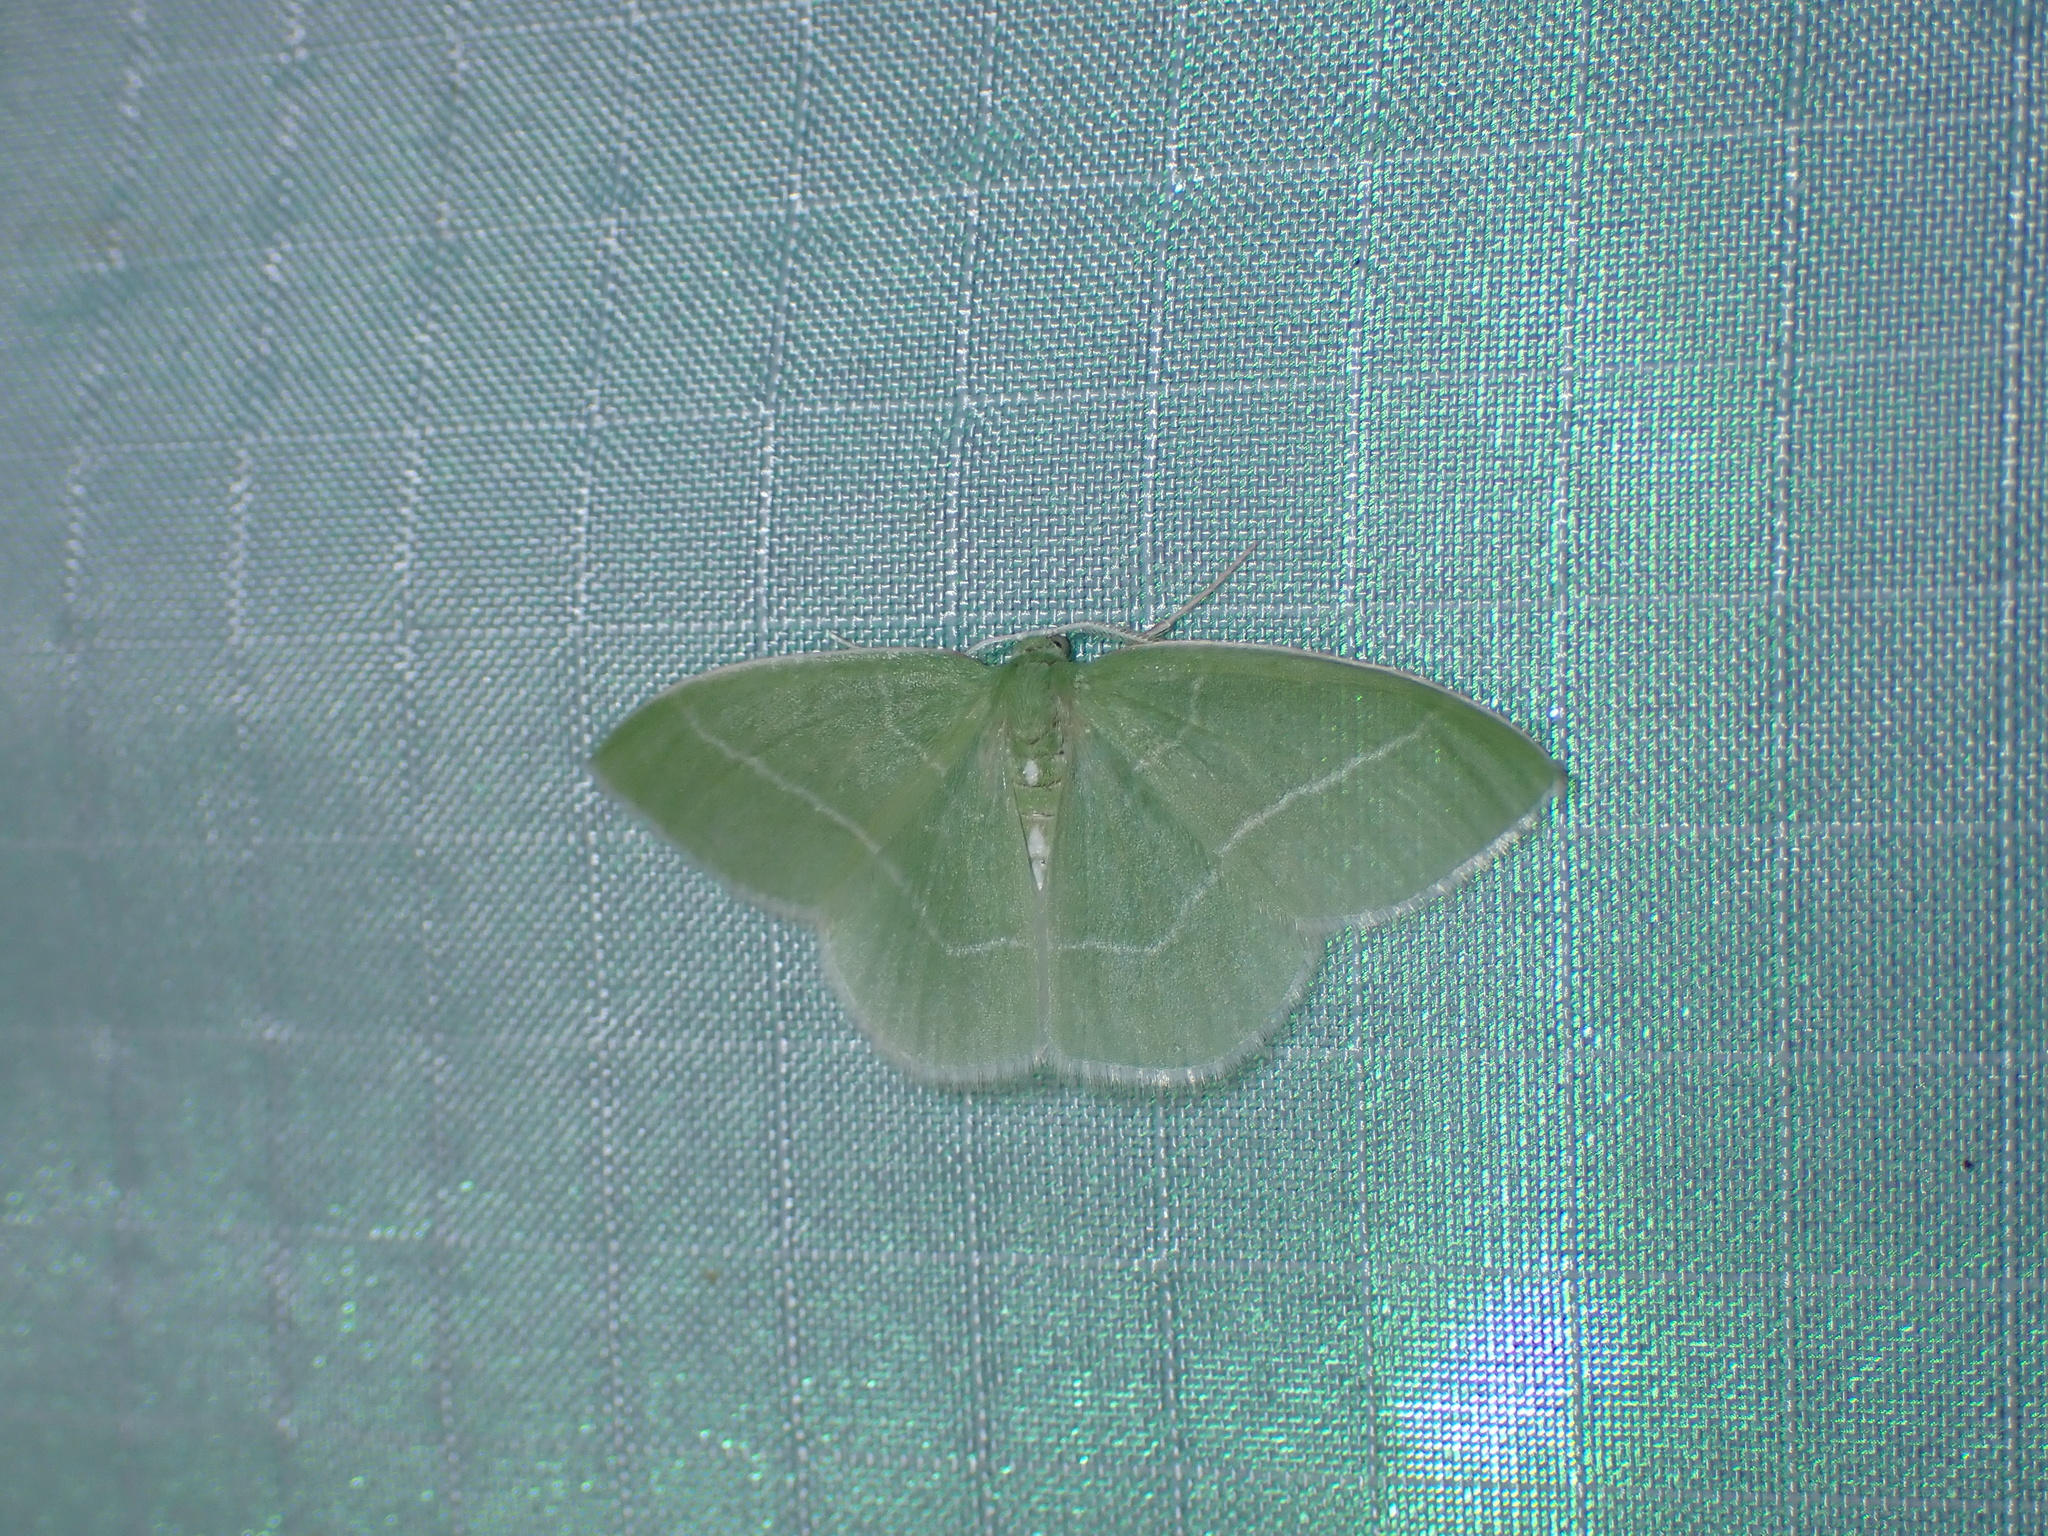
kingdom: Animalia
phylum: Arthropoda
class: Insecta
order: Lepidoptera
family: Geometridae
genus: Nemoria
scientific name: Nemoria mimosaria
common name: White-fringed emerald
